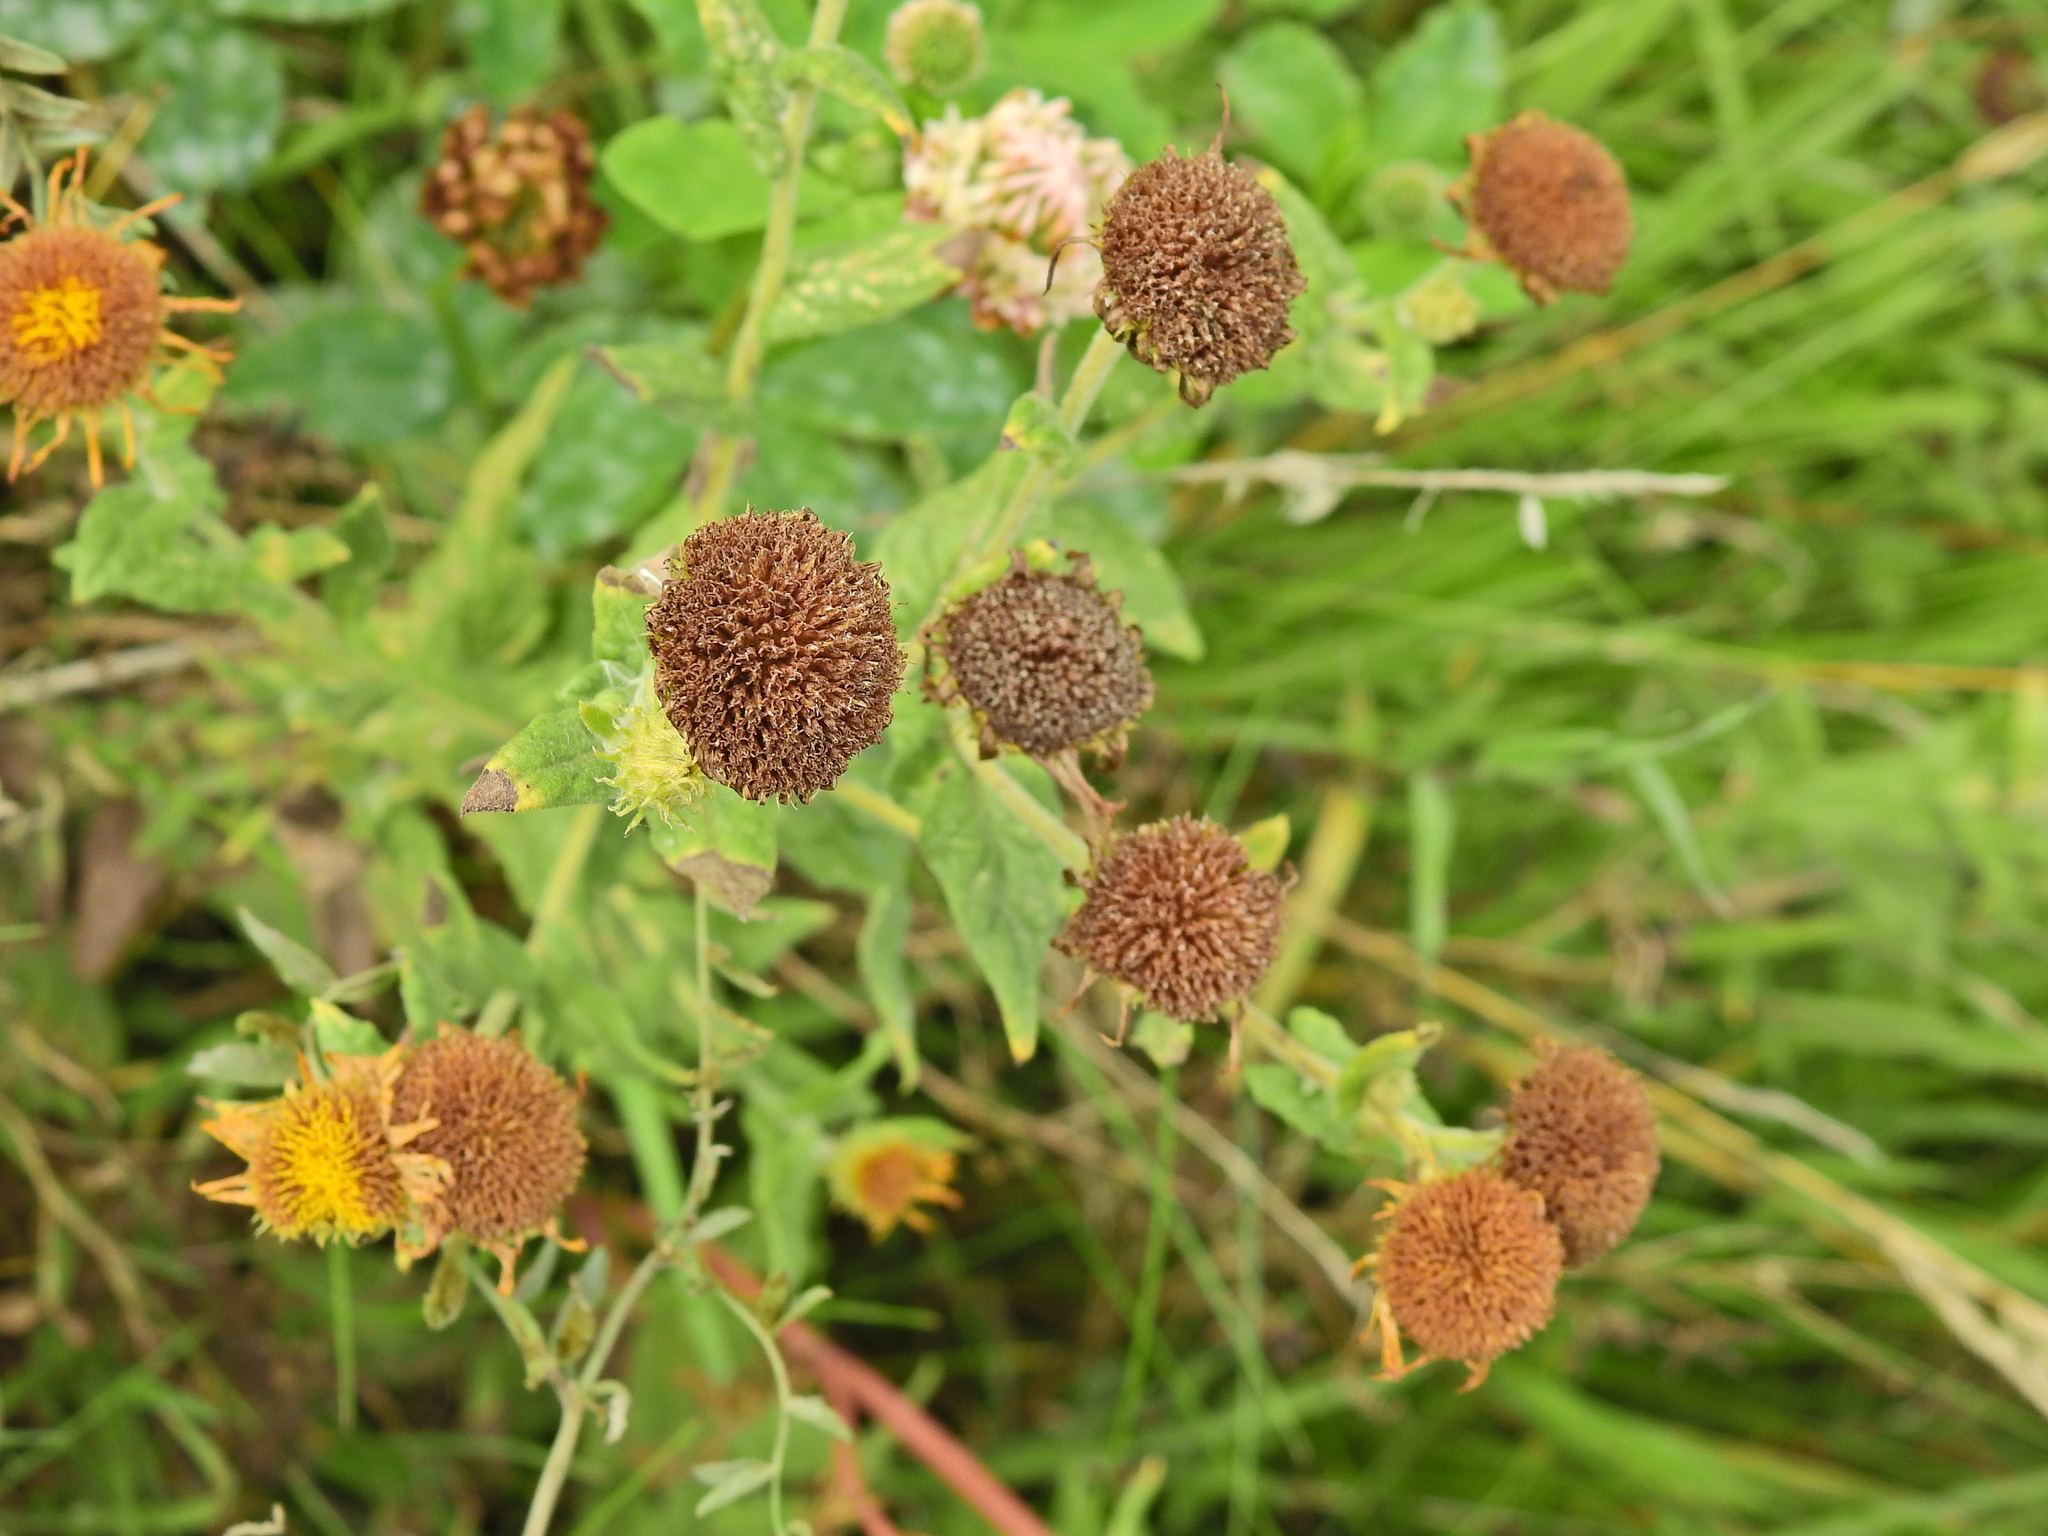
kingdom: Plantae
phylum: Tracheophyta
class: Magnoliopsida
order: Asterales
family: Asteraceae
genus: Pulicaria
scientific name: Pulicaria dysenterica
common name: Common fleabane
